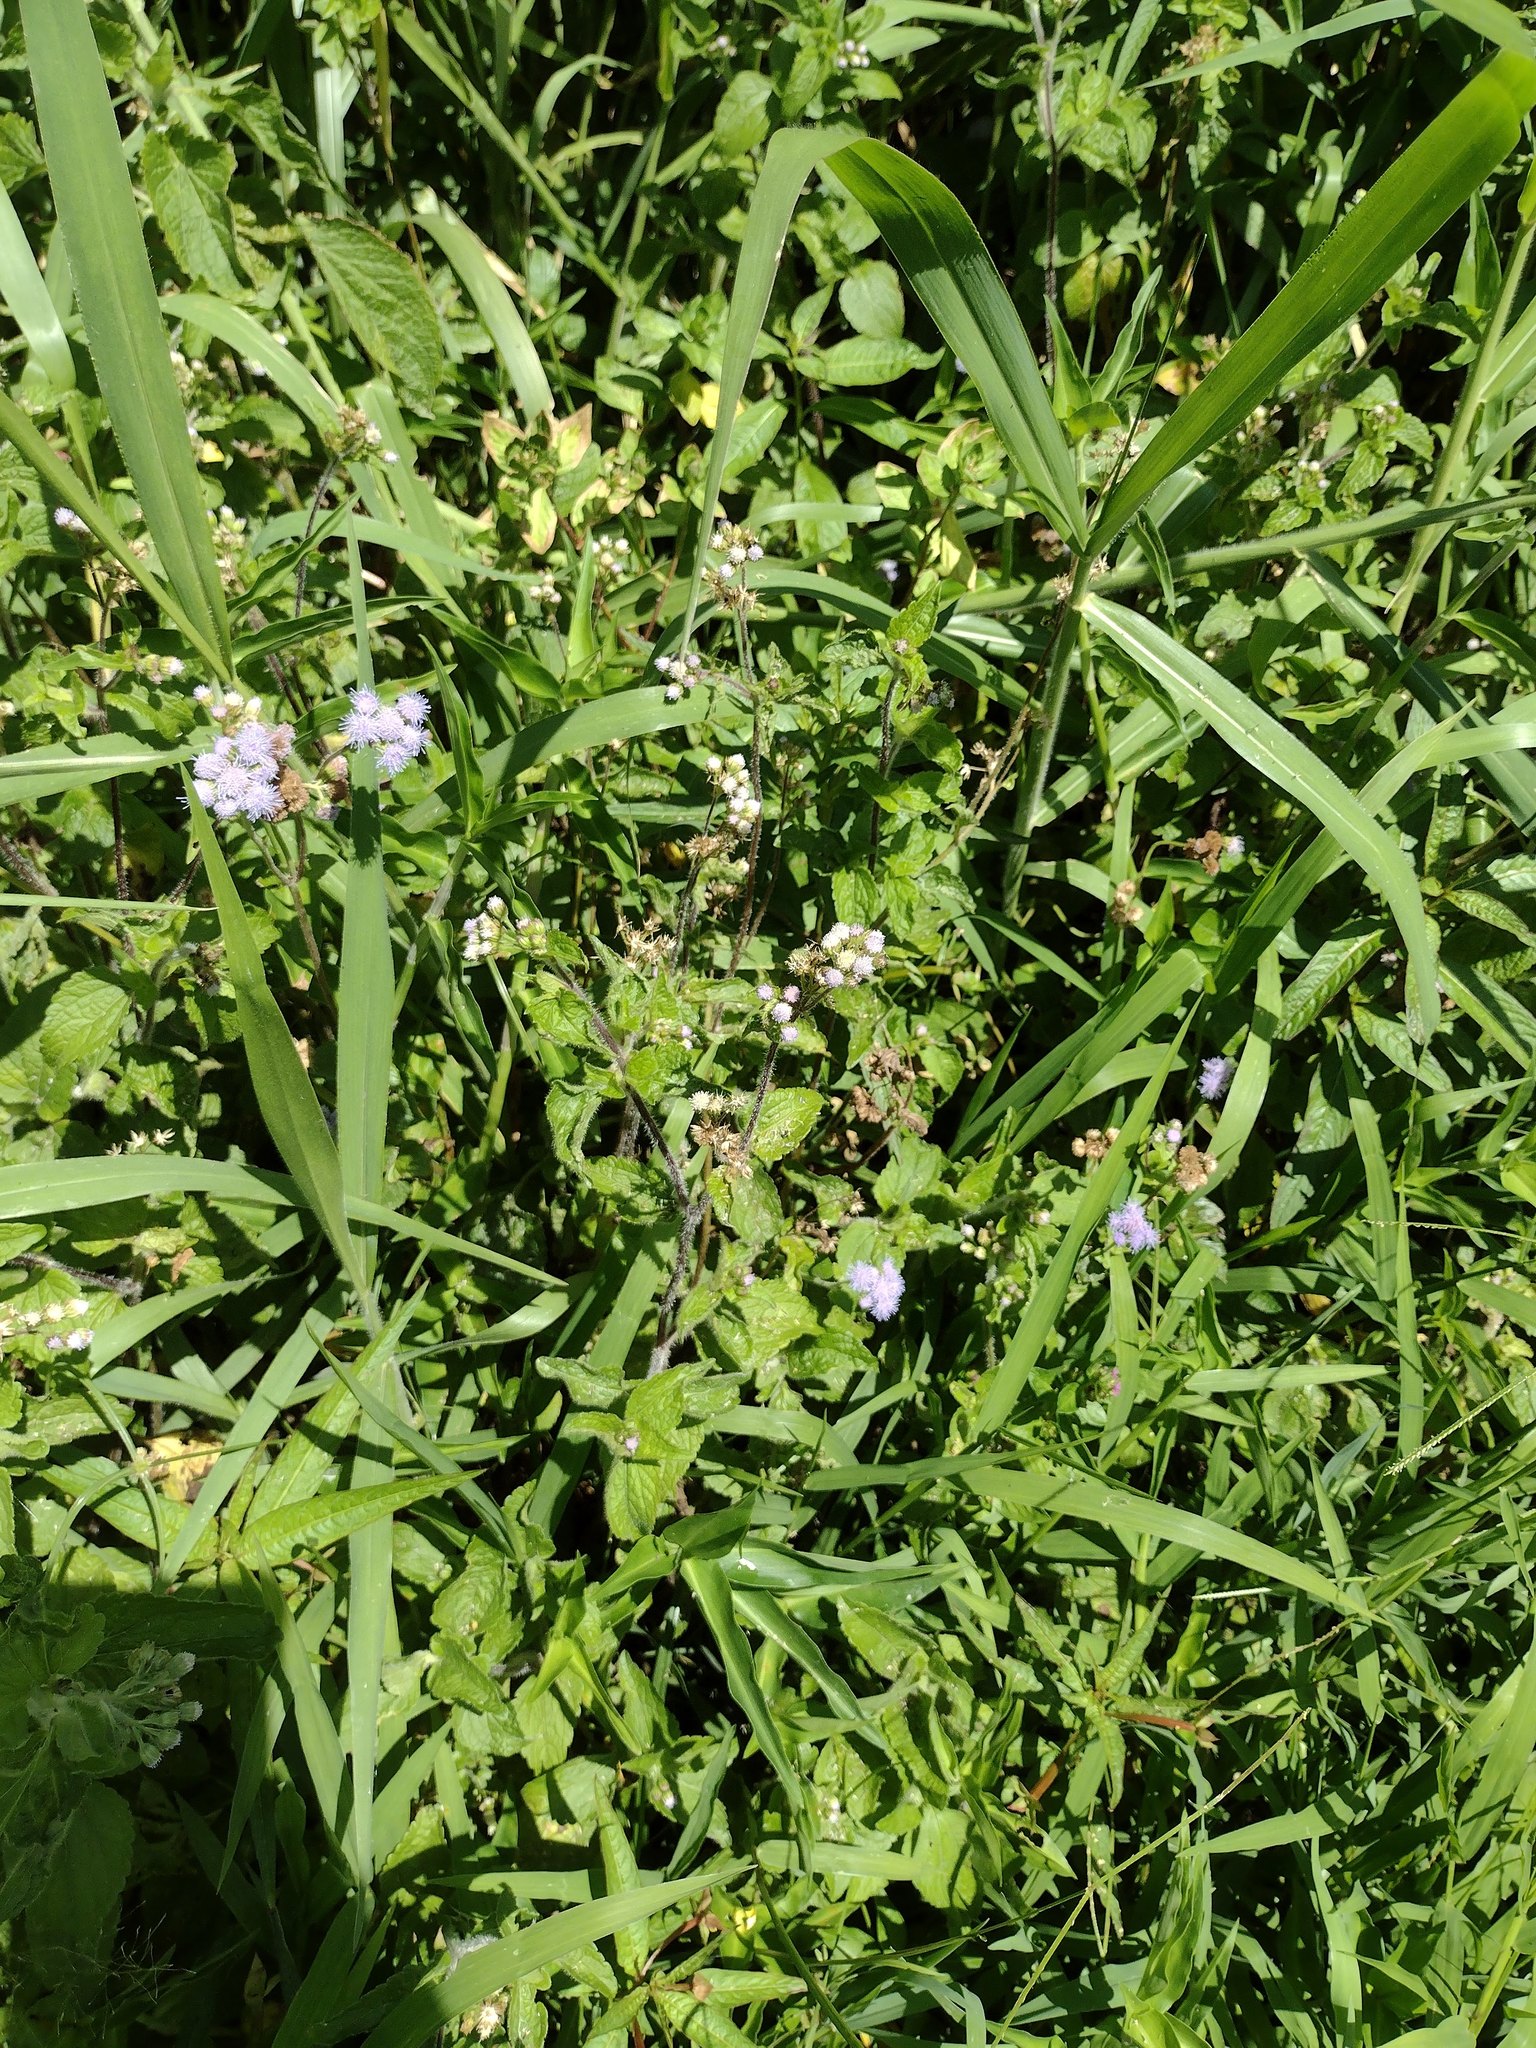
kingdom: Plantae
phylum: Tracheophyta
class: Magnoliopsida
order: Asterales
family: Asteraceae
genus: Ageratum
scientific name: Ageratum conyzoides
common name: Tropical whiteweed
